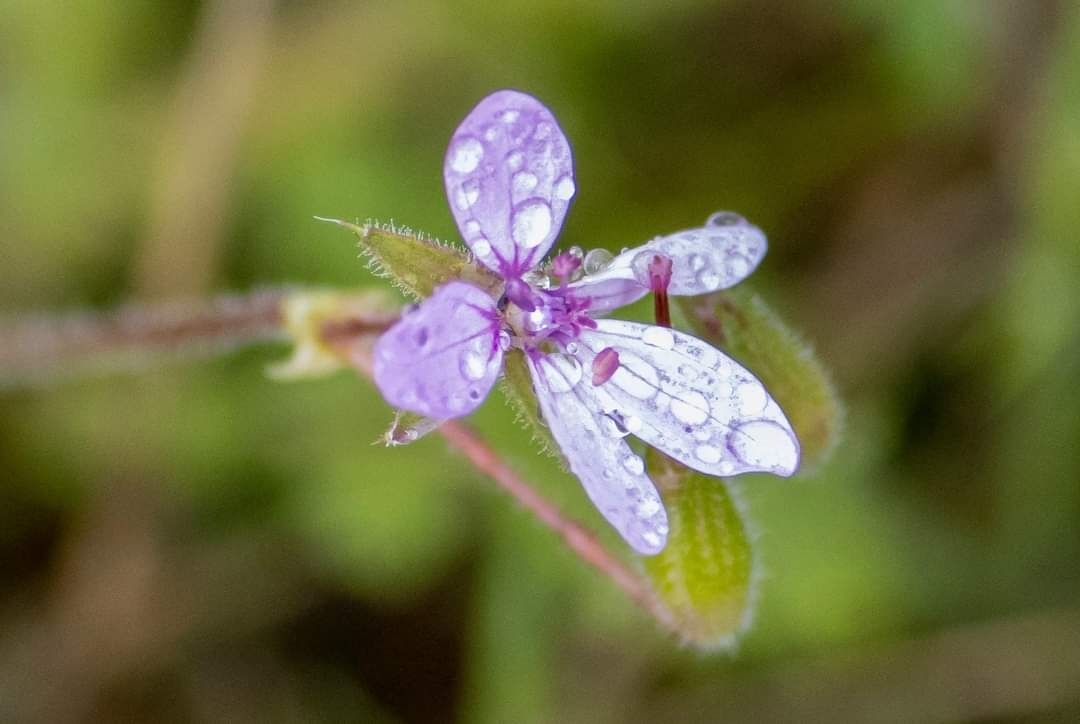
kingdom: Plantae
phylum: Tracheophyta
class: Magnoliopsida
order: Geraniales
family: Geraniaceae
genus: Erodium
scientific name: Erodium cicutarium
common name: Common stork's-bill
